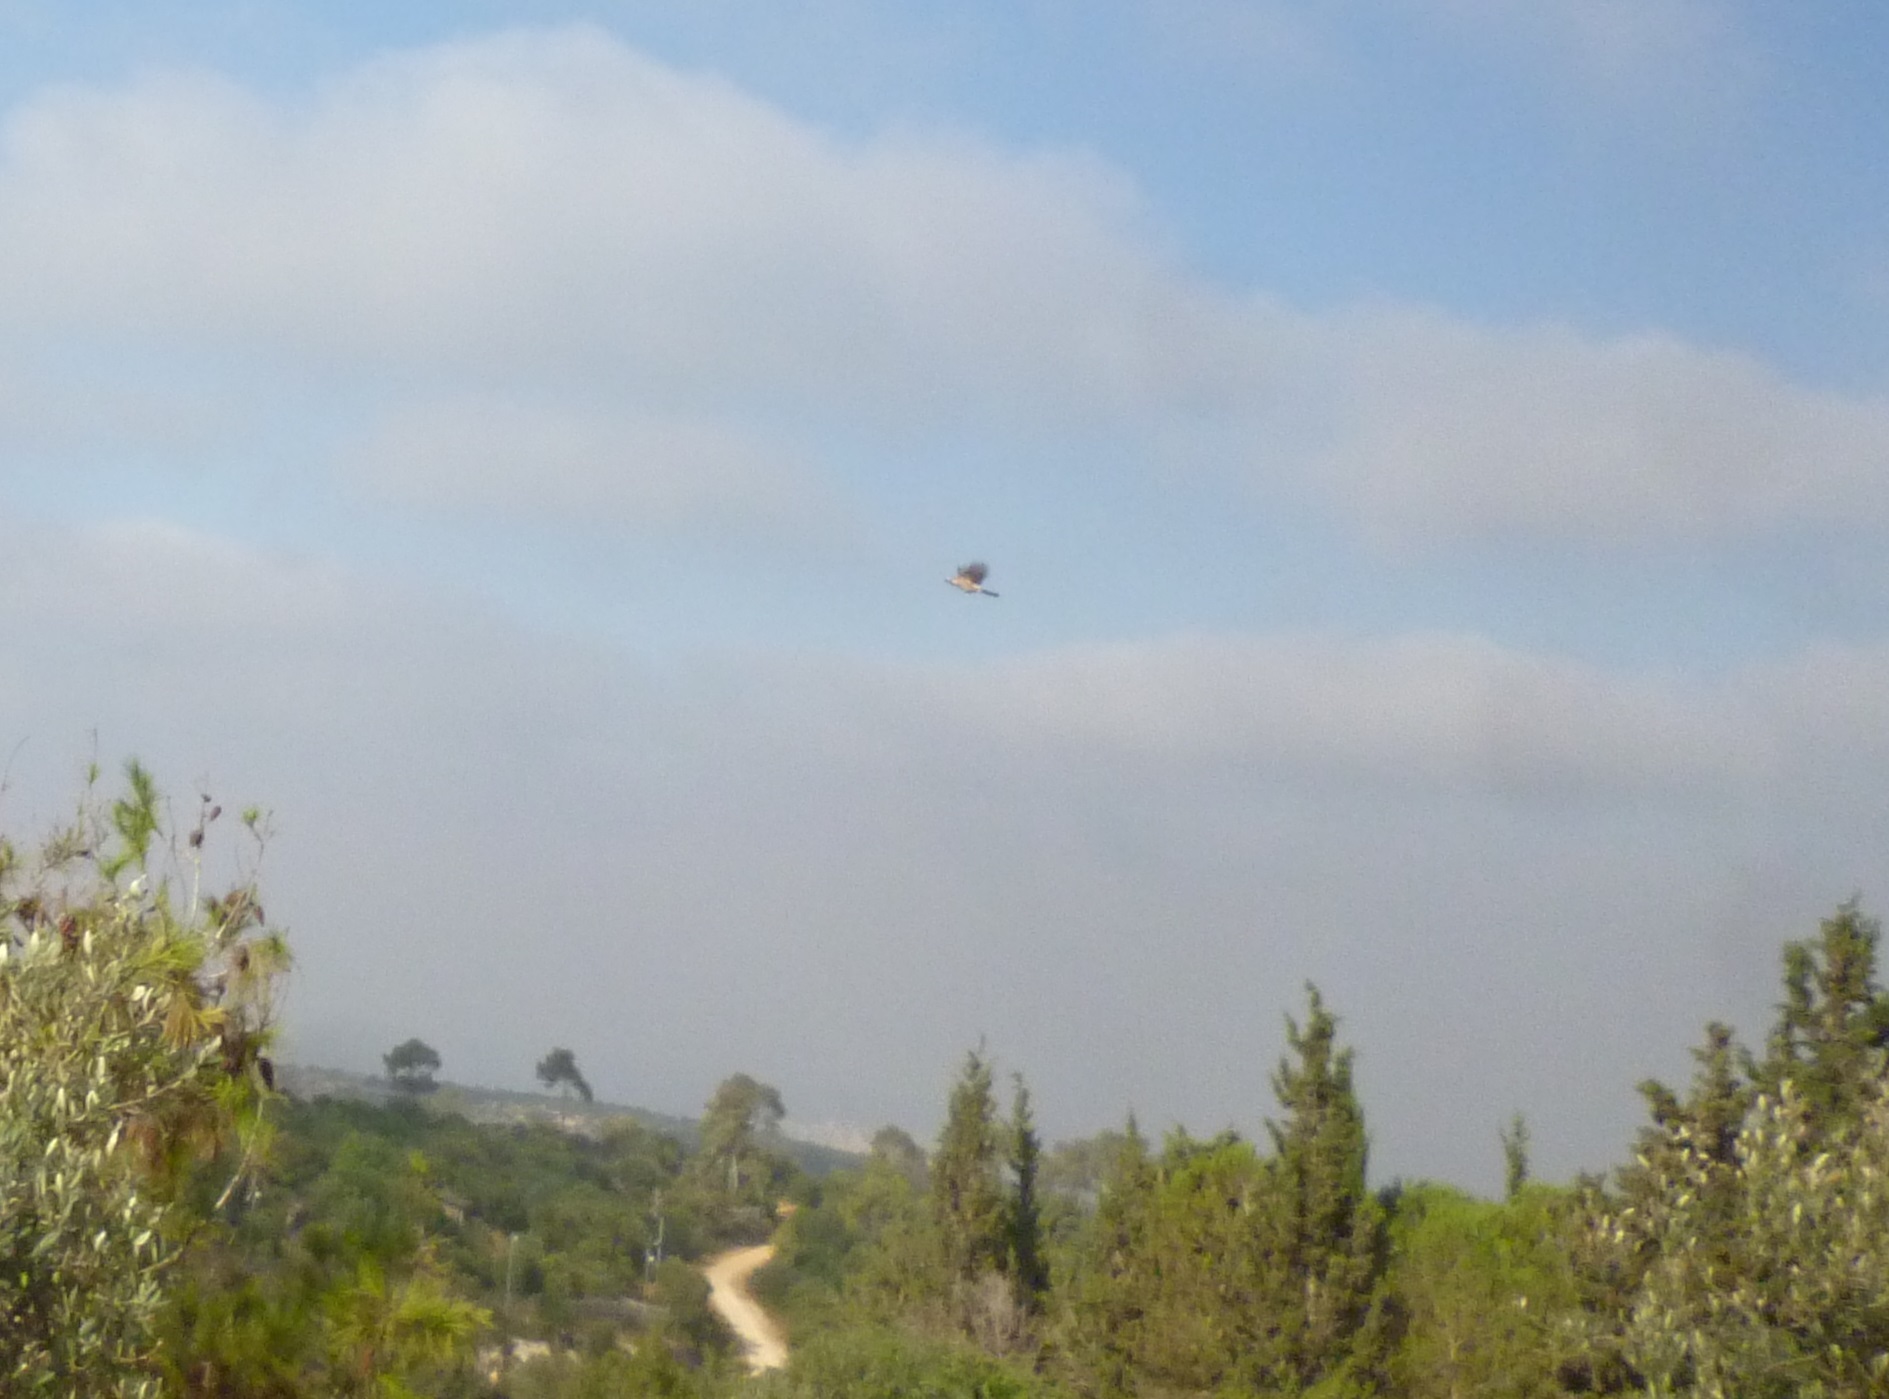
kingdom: Animalia
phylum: Chordata
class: Aves
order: Passeriformes
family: Corvidae
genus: Garrulus
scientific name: Garrulus glandarius
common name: Eurasian jay
